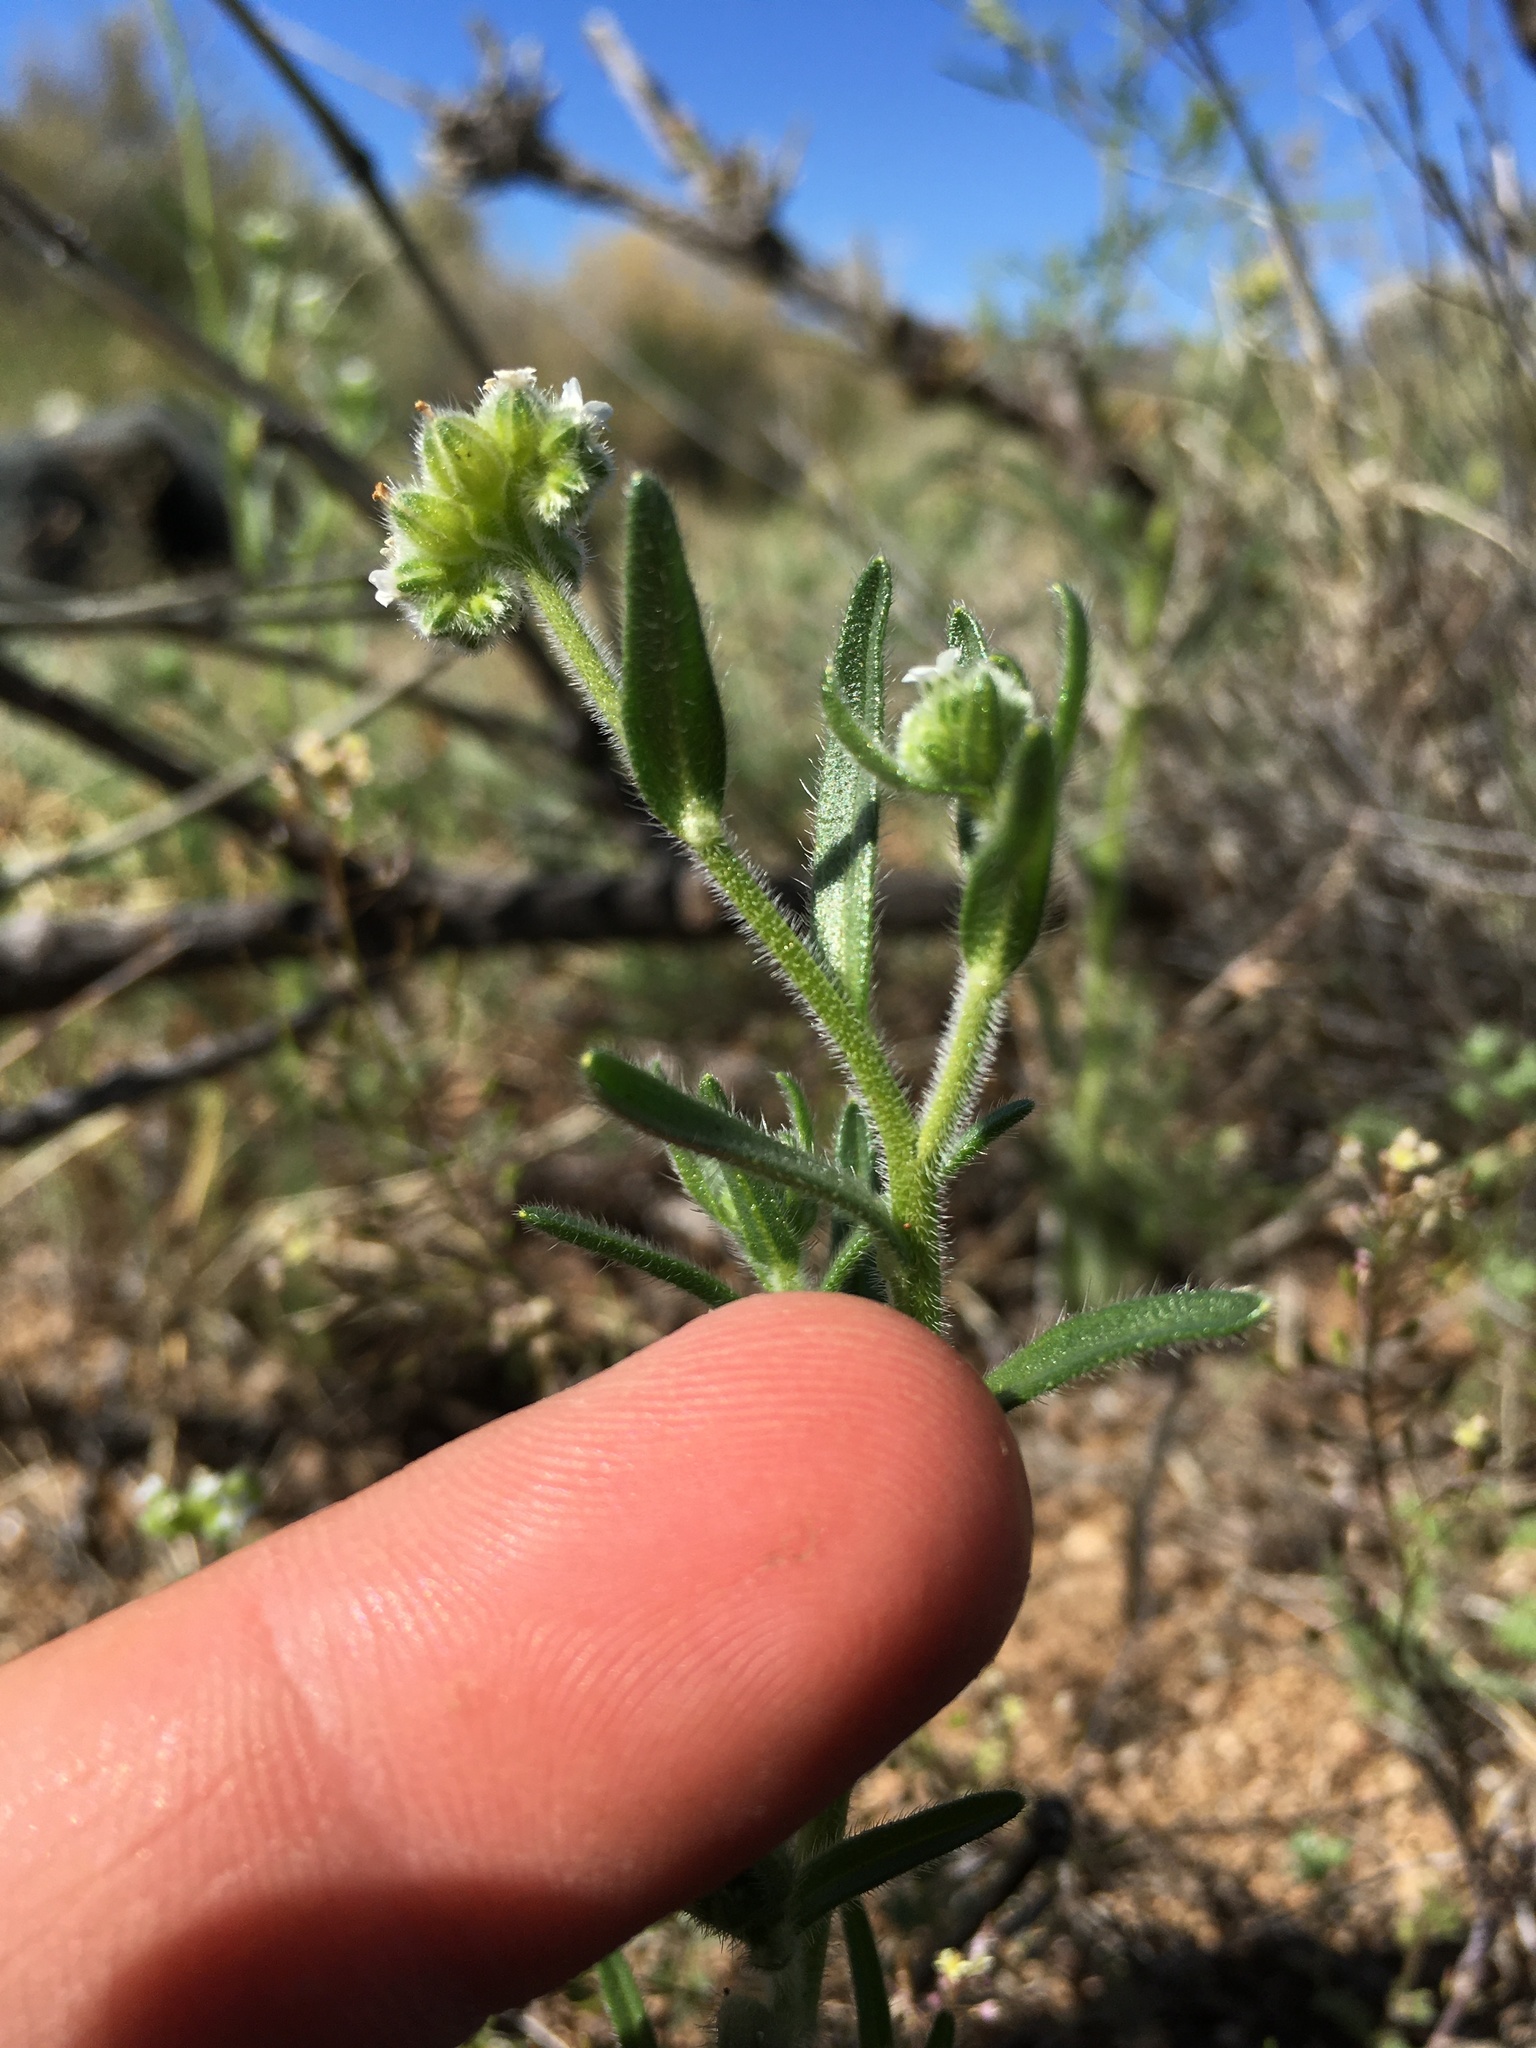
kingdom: Plantae
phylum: Tracheophyta
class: Magnoliopsida
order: Boraginales
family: Boraginaceae
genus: Cryptantha
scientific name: Cryptantha pterocarya
